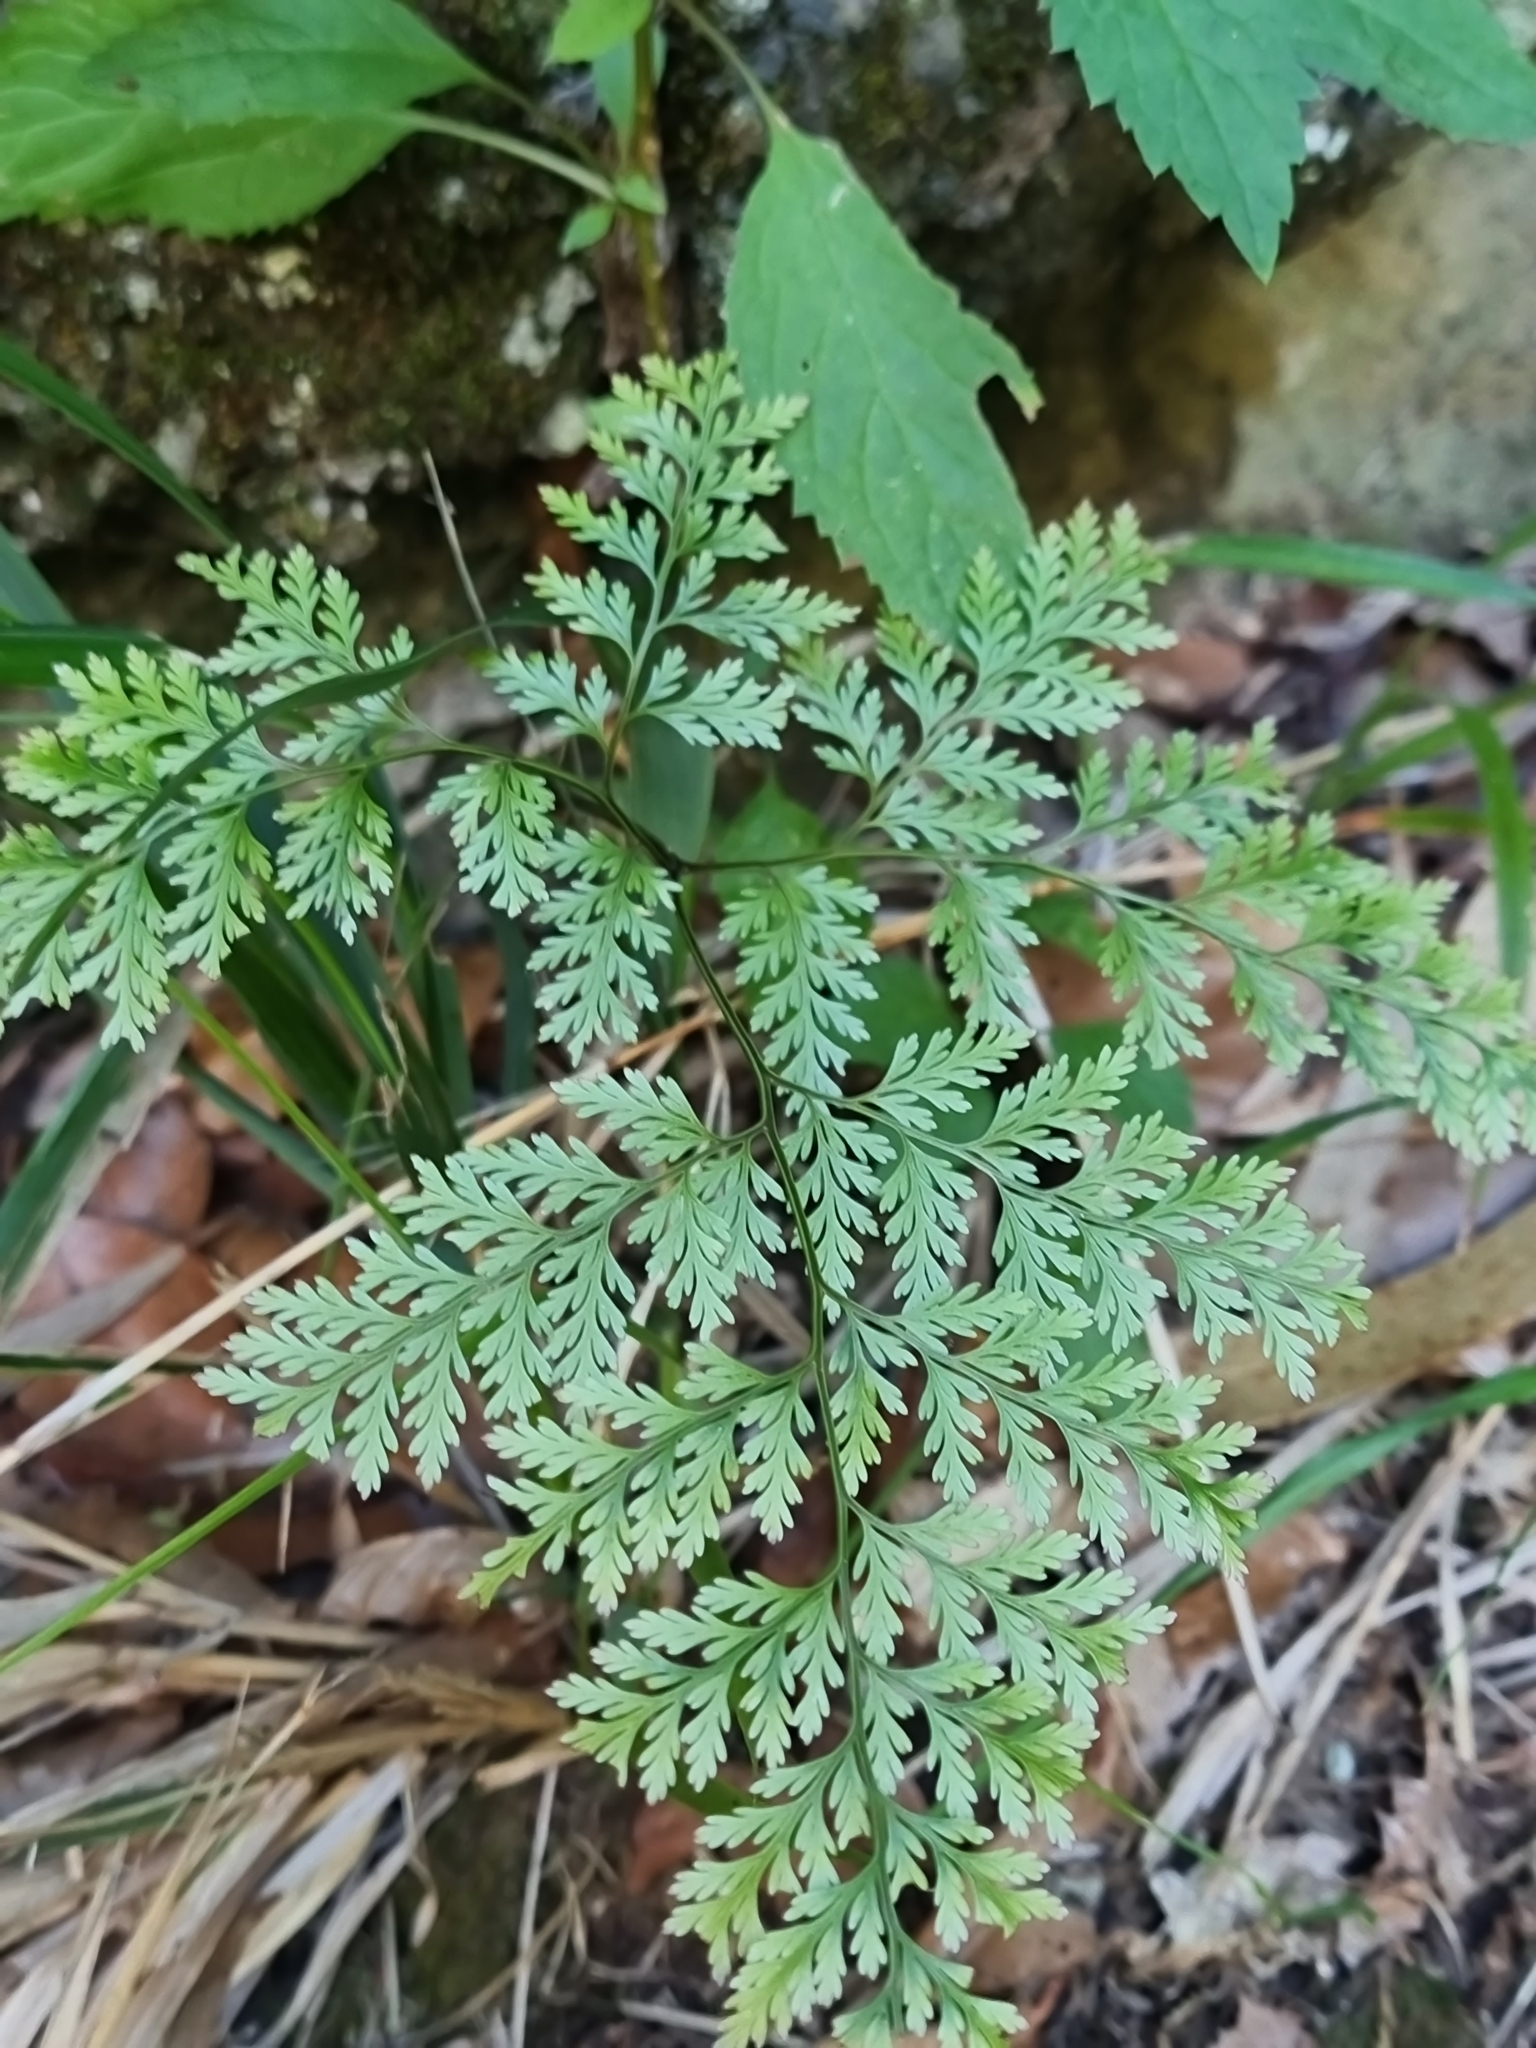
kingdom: Plantae
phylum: Tracheophyta
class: Polypodiopsida
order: Polypodiales
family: Davalliaceae
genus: Davallia
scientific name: Davallia canariensis
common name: Hare's-foot fern
